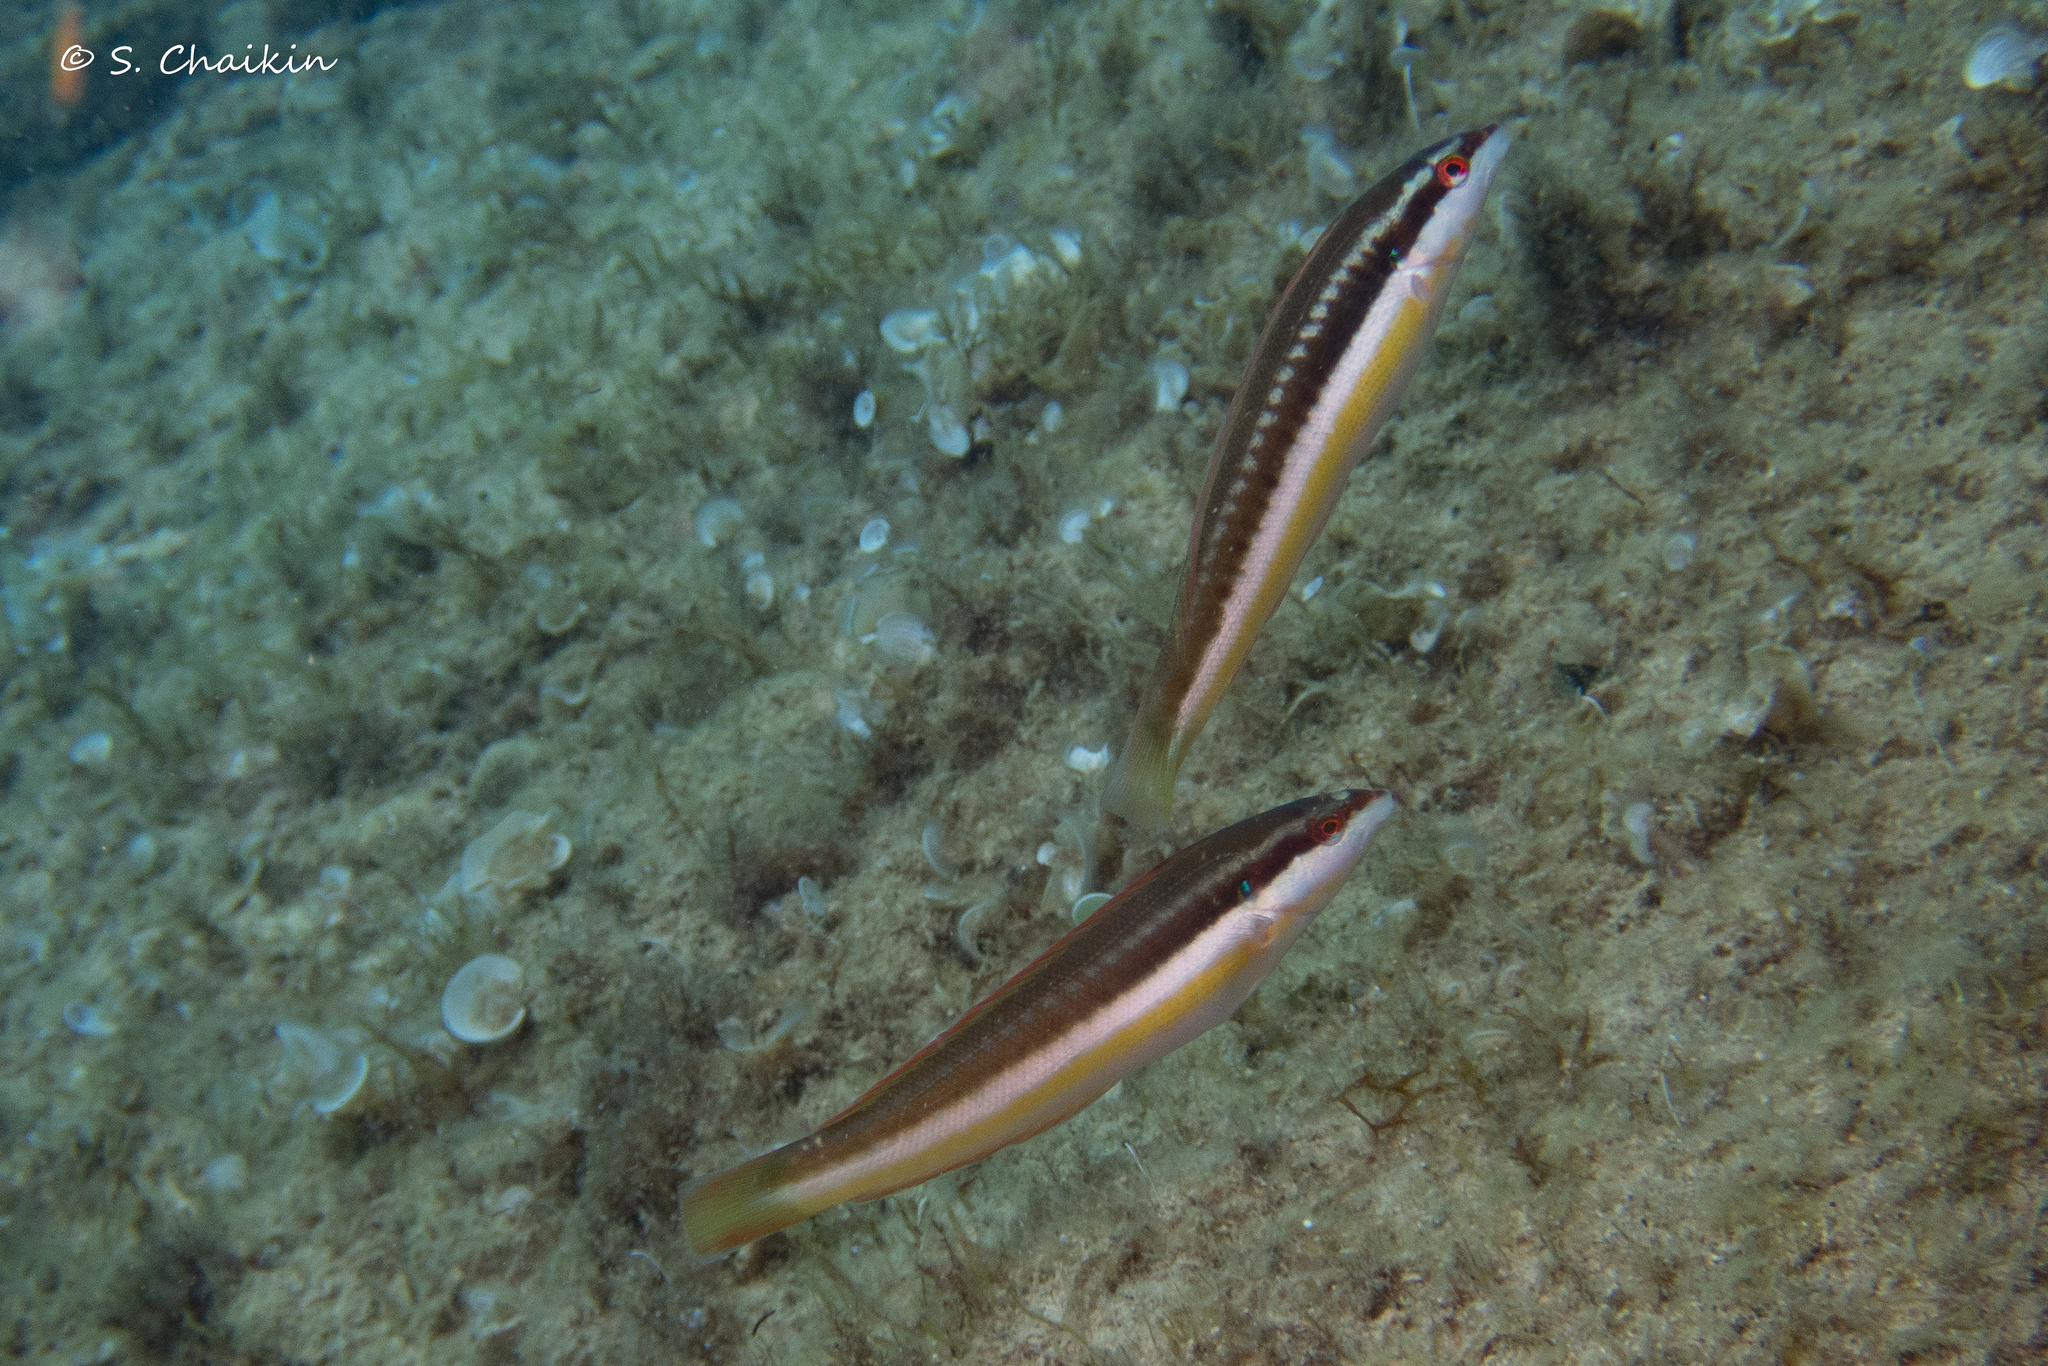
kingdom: Animalia
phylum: Chordata
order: Perciformes
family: Labridae
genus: Coris
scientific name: Coris julis
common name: Rainbow wrasse
